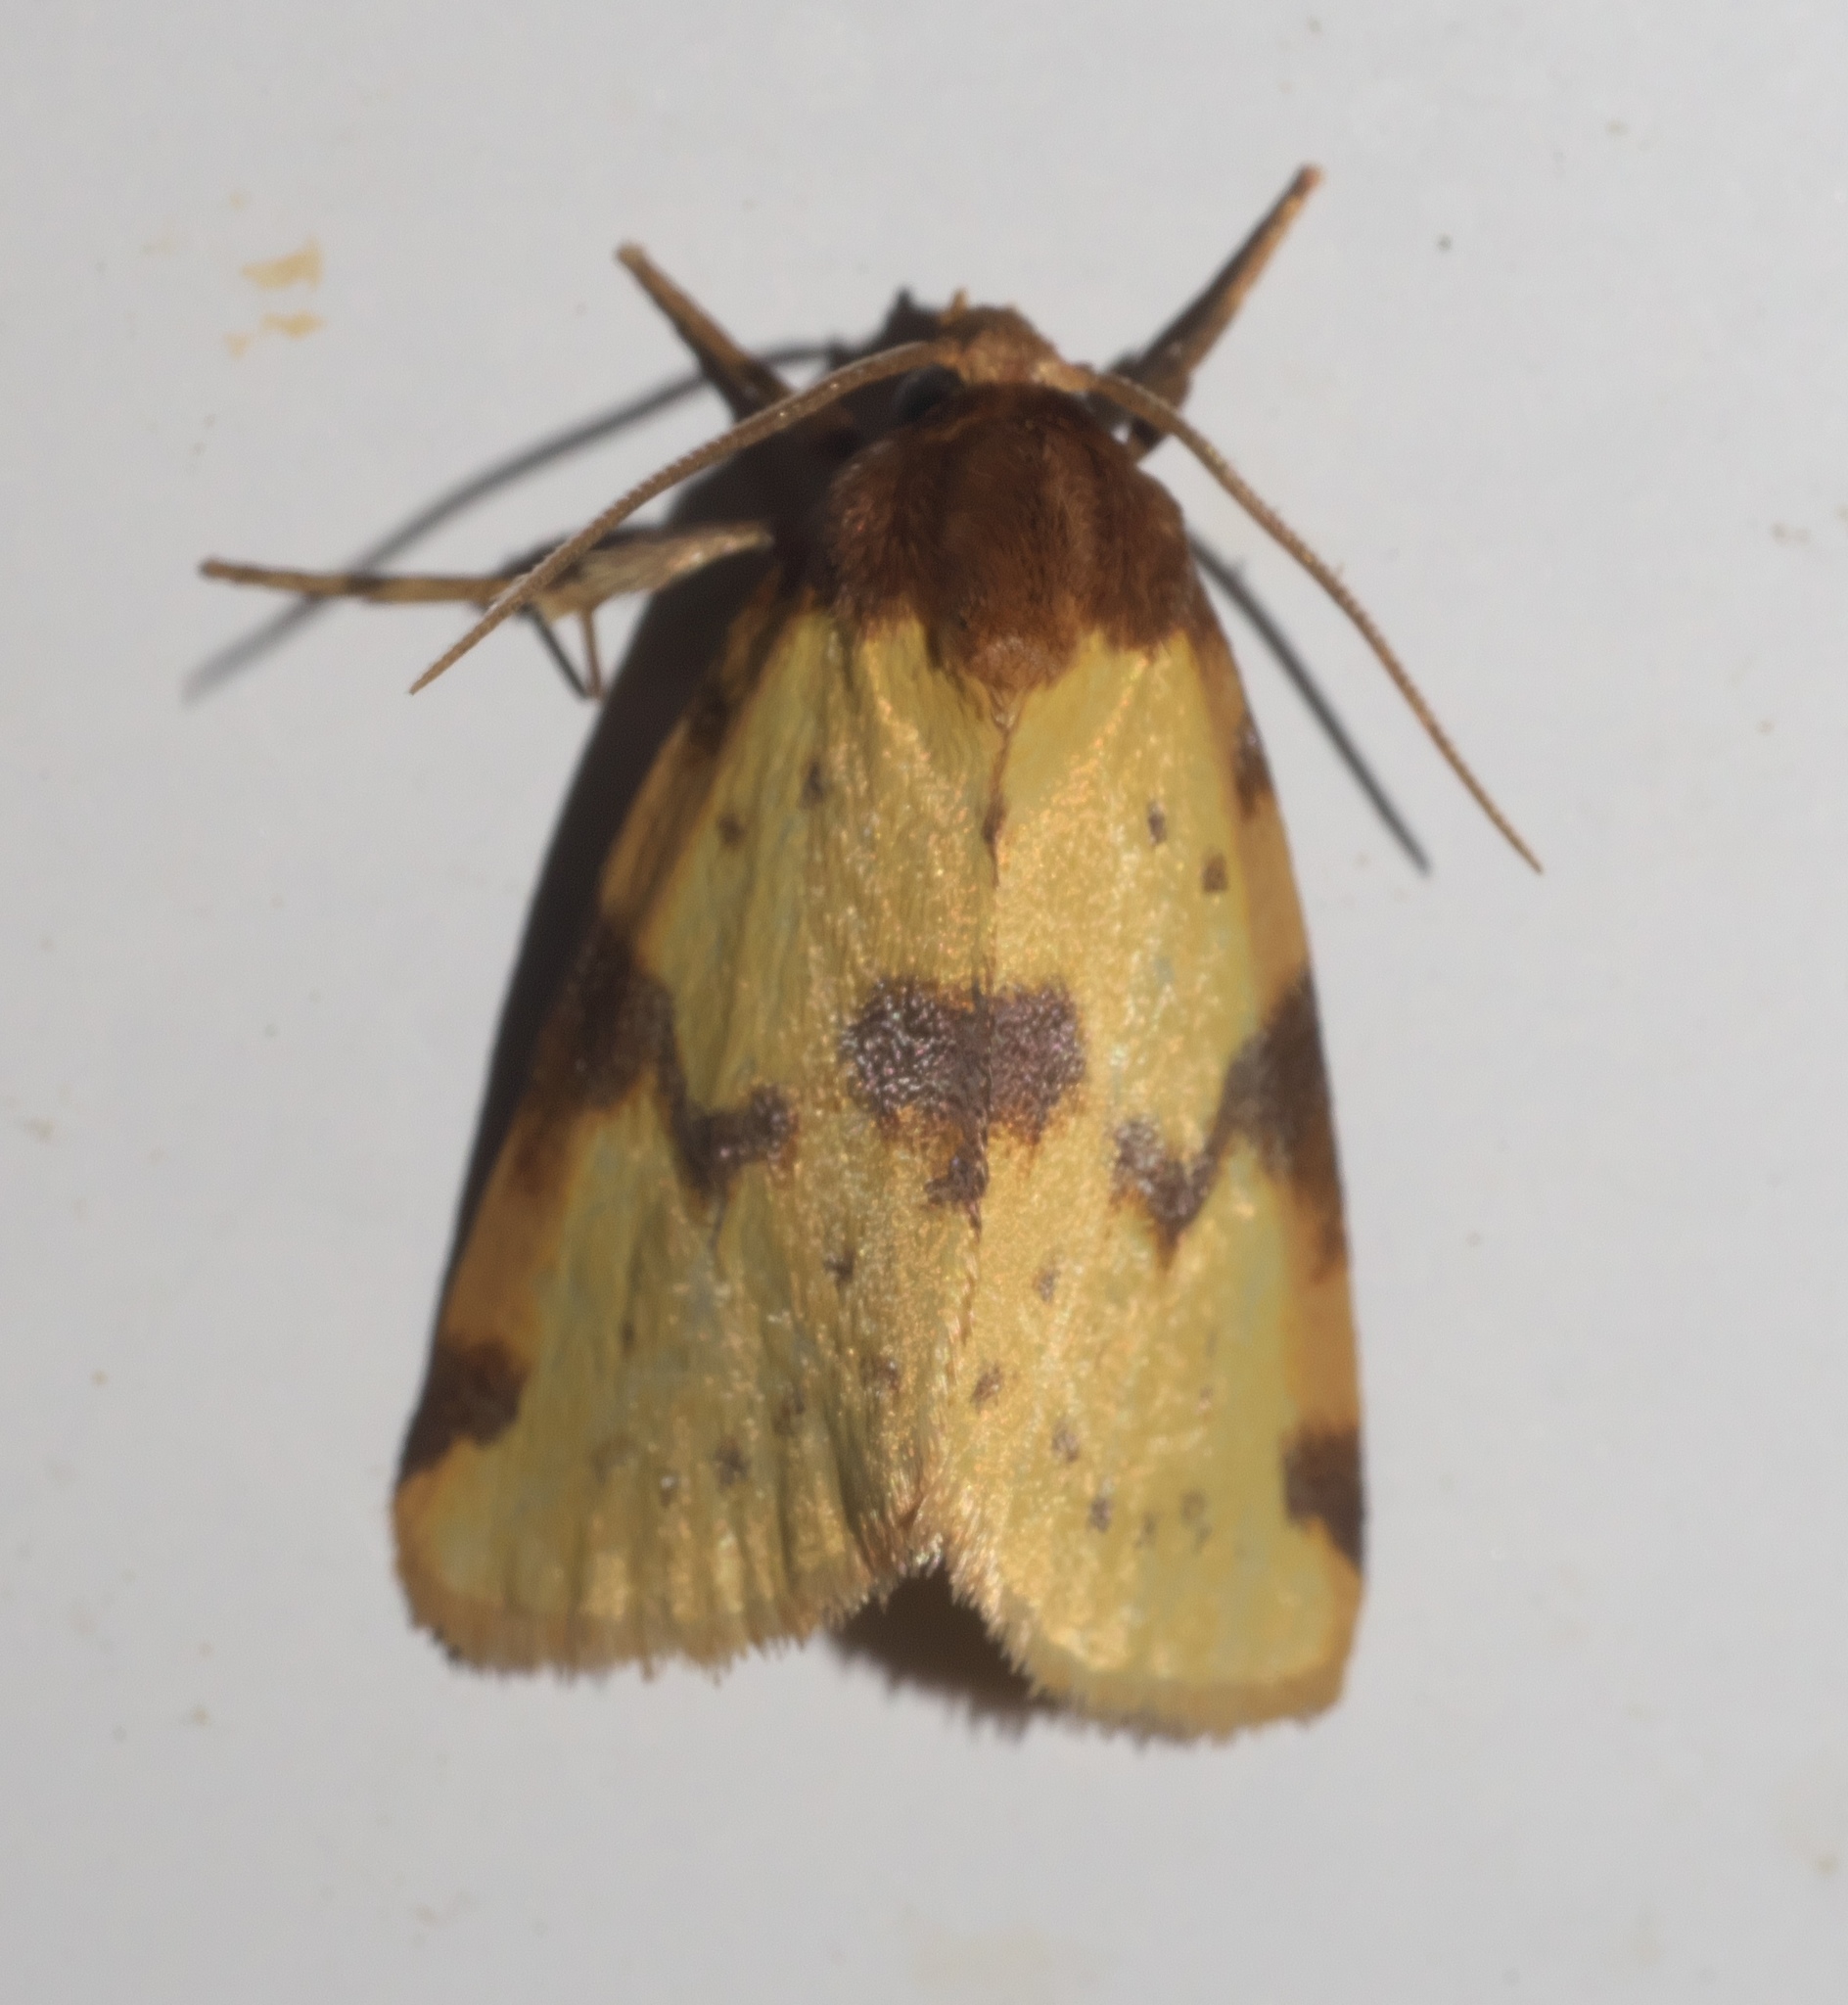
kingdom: Animalia
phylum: Arthropoda
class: Insecta
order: Lepidoptera
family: Noctuidae
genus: Azenia
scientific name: Azenia obtusa
